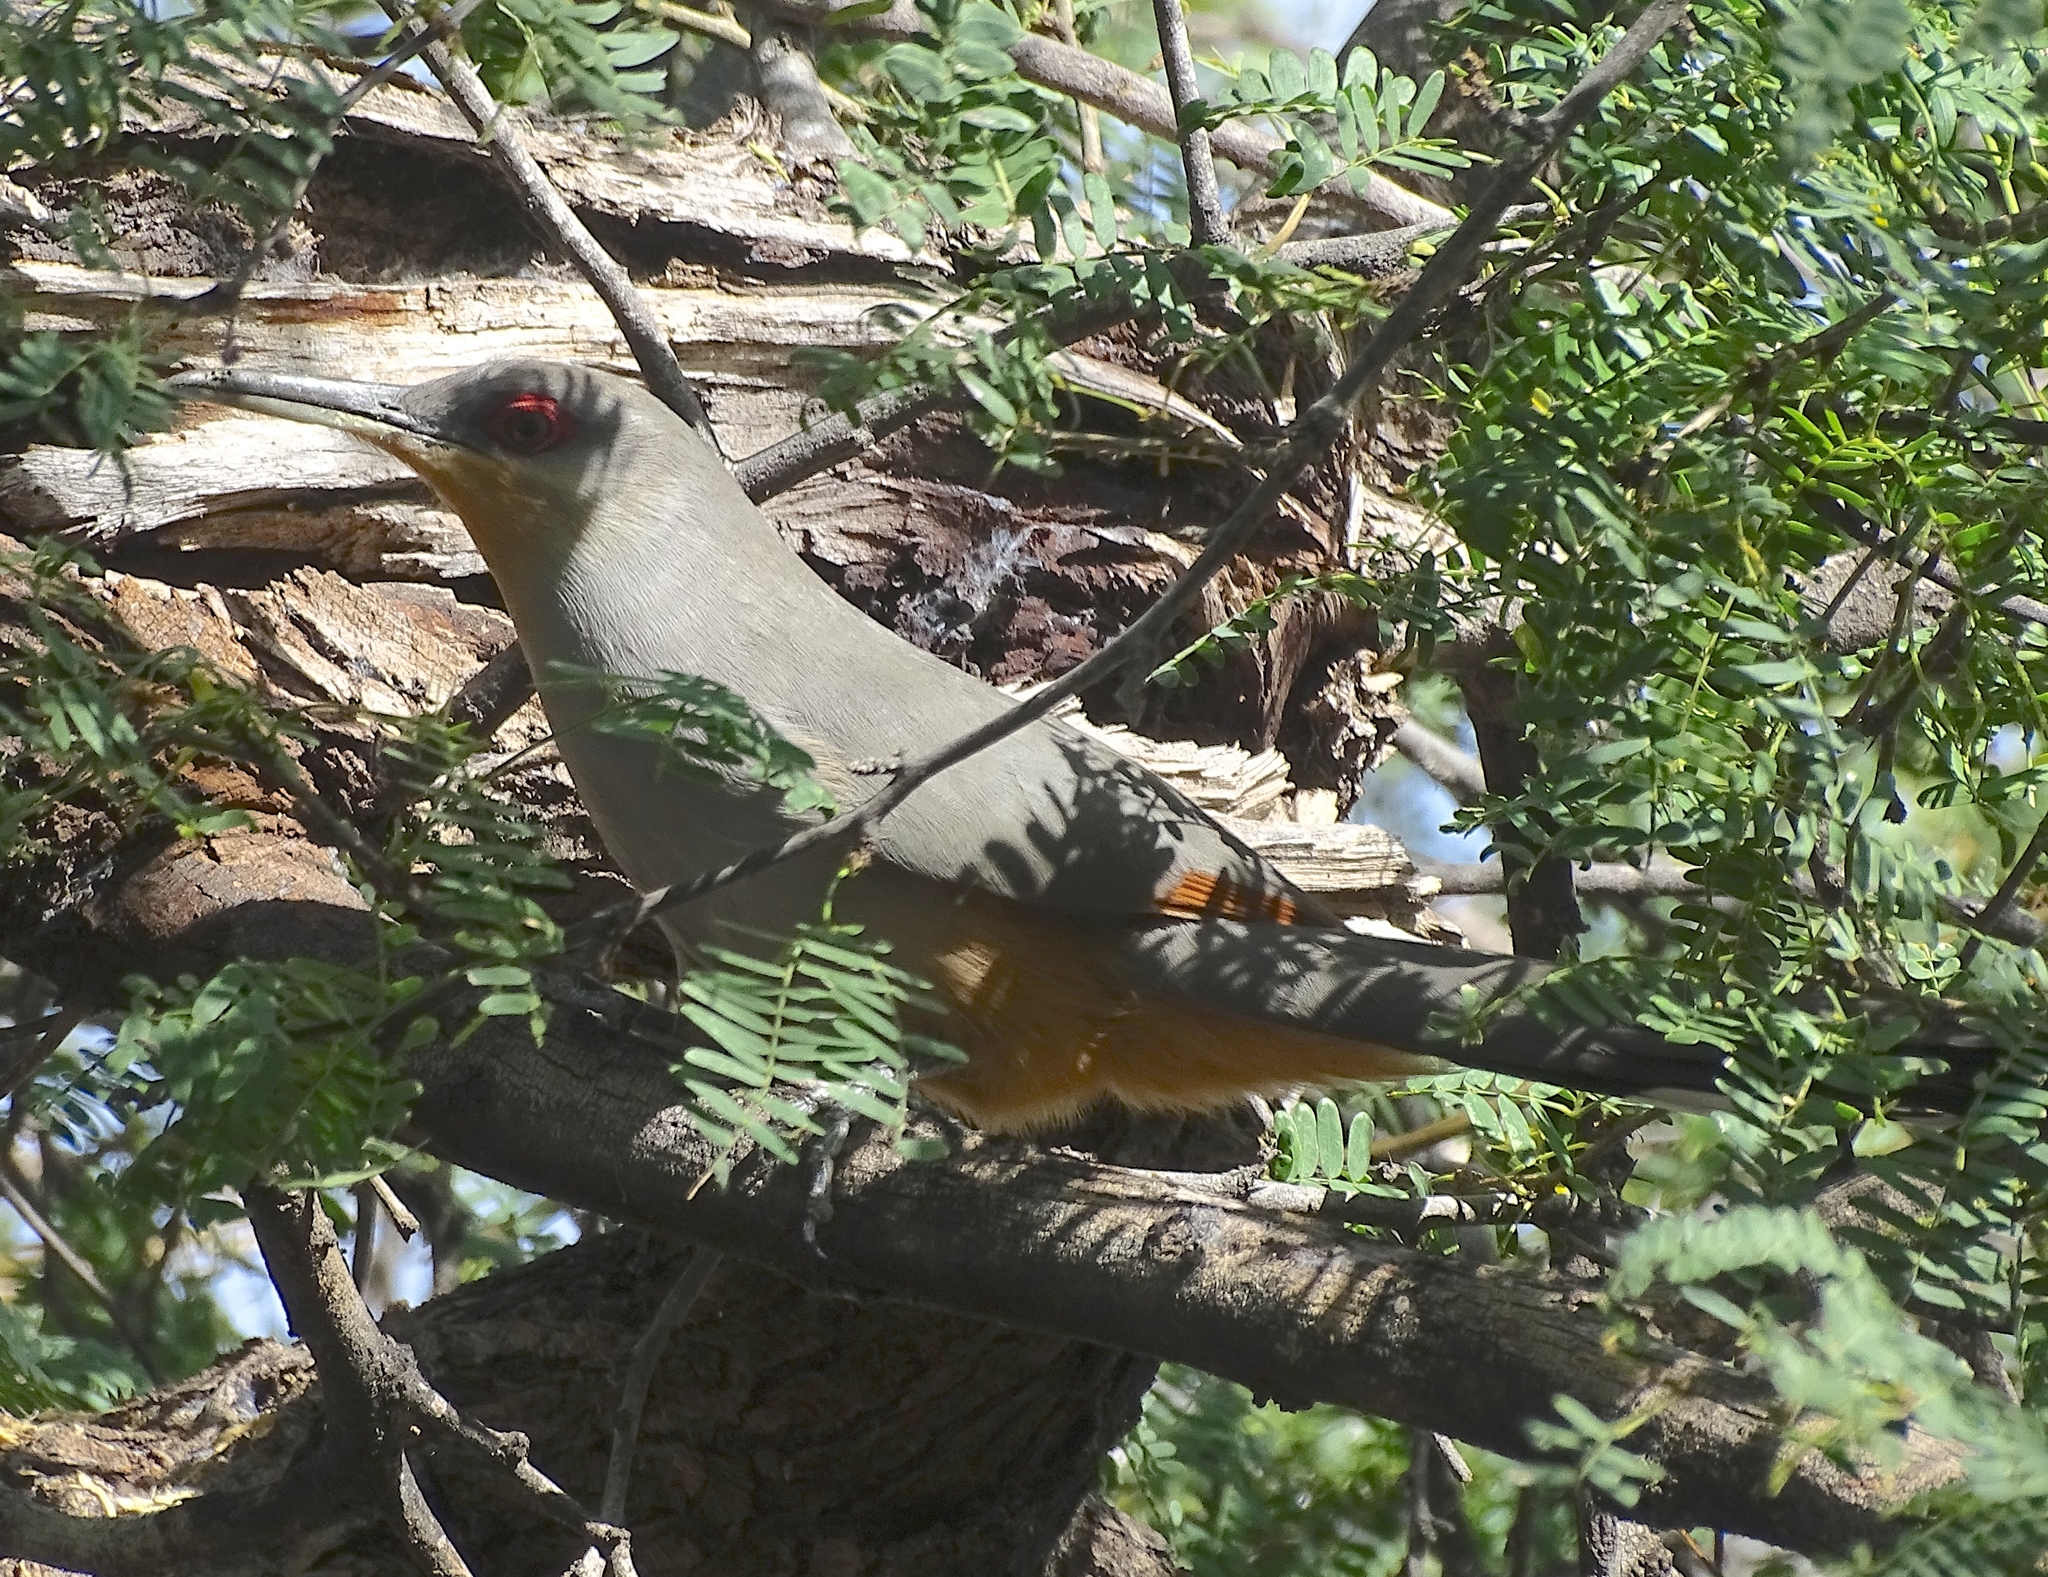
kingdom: Animalia
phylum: Chordata
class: Aves
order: Cuculiformes
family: Cuculidae
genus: Saurothera
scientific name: Saurothera longirostris
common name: Hispaniolan lizard-cuckoo
